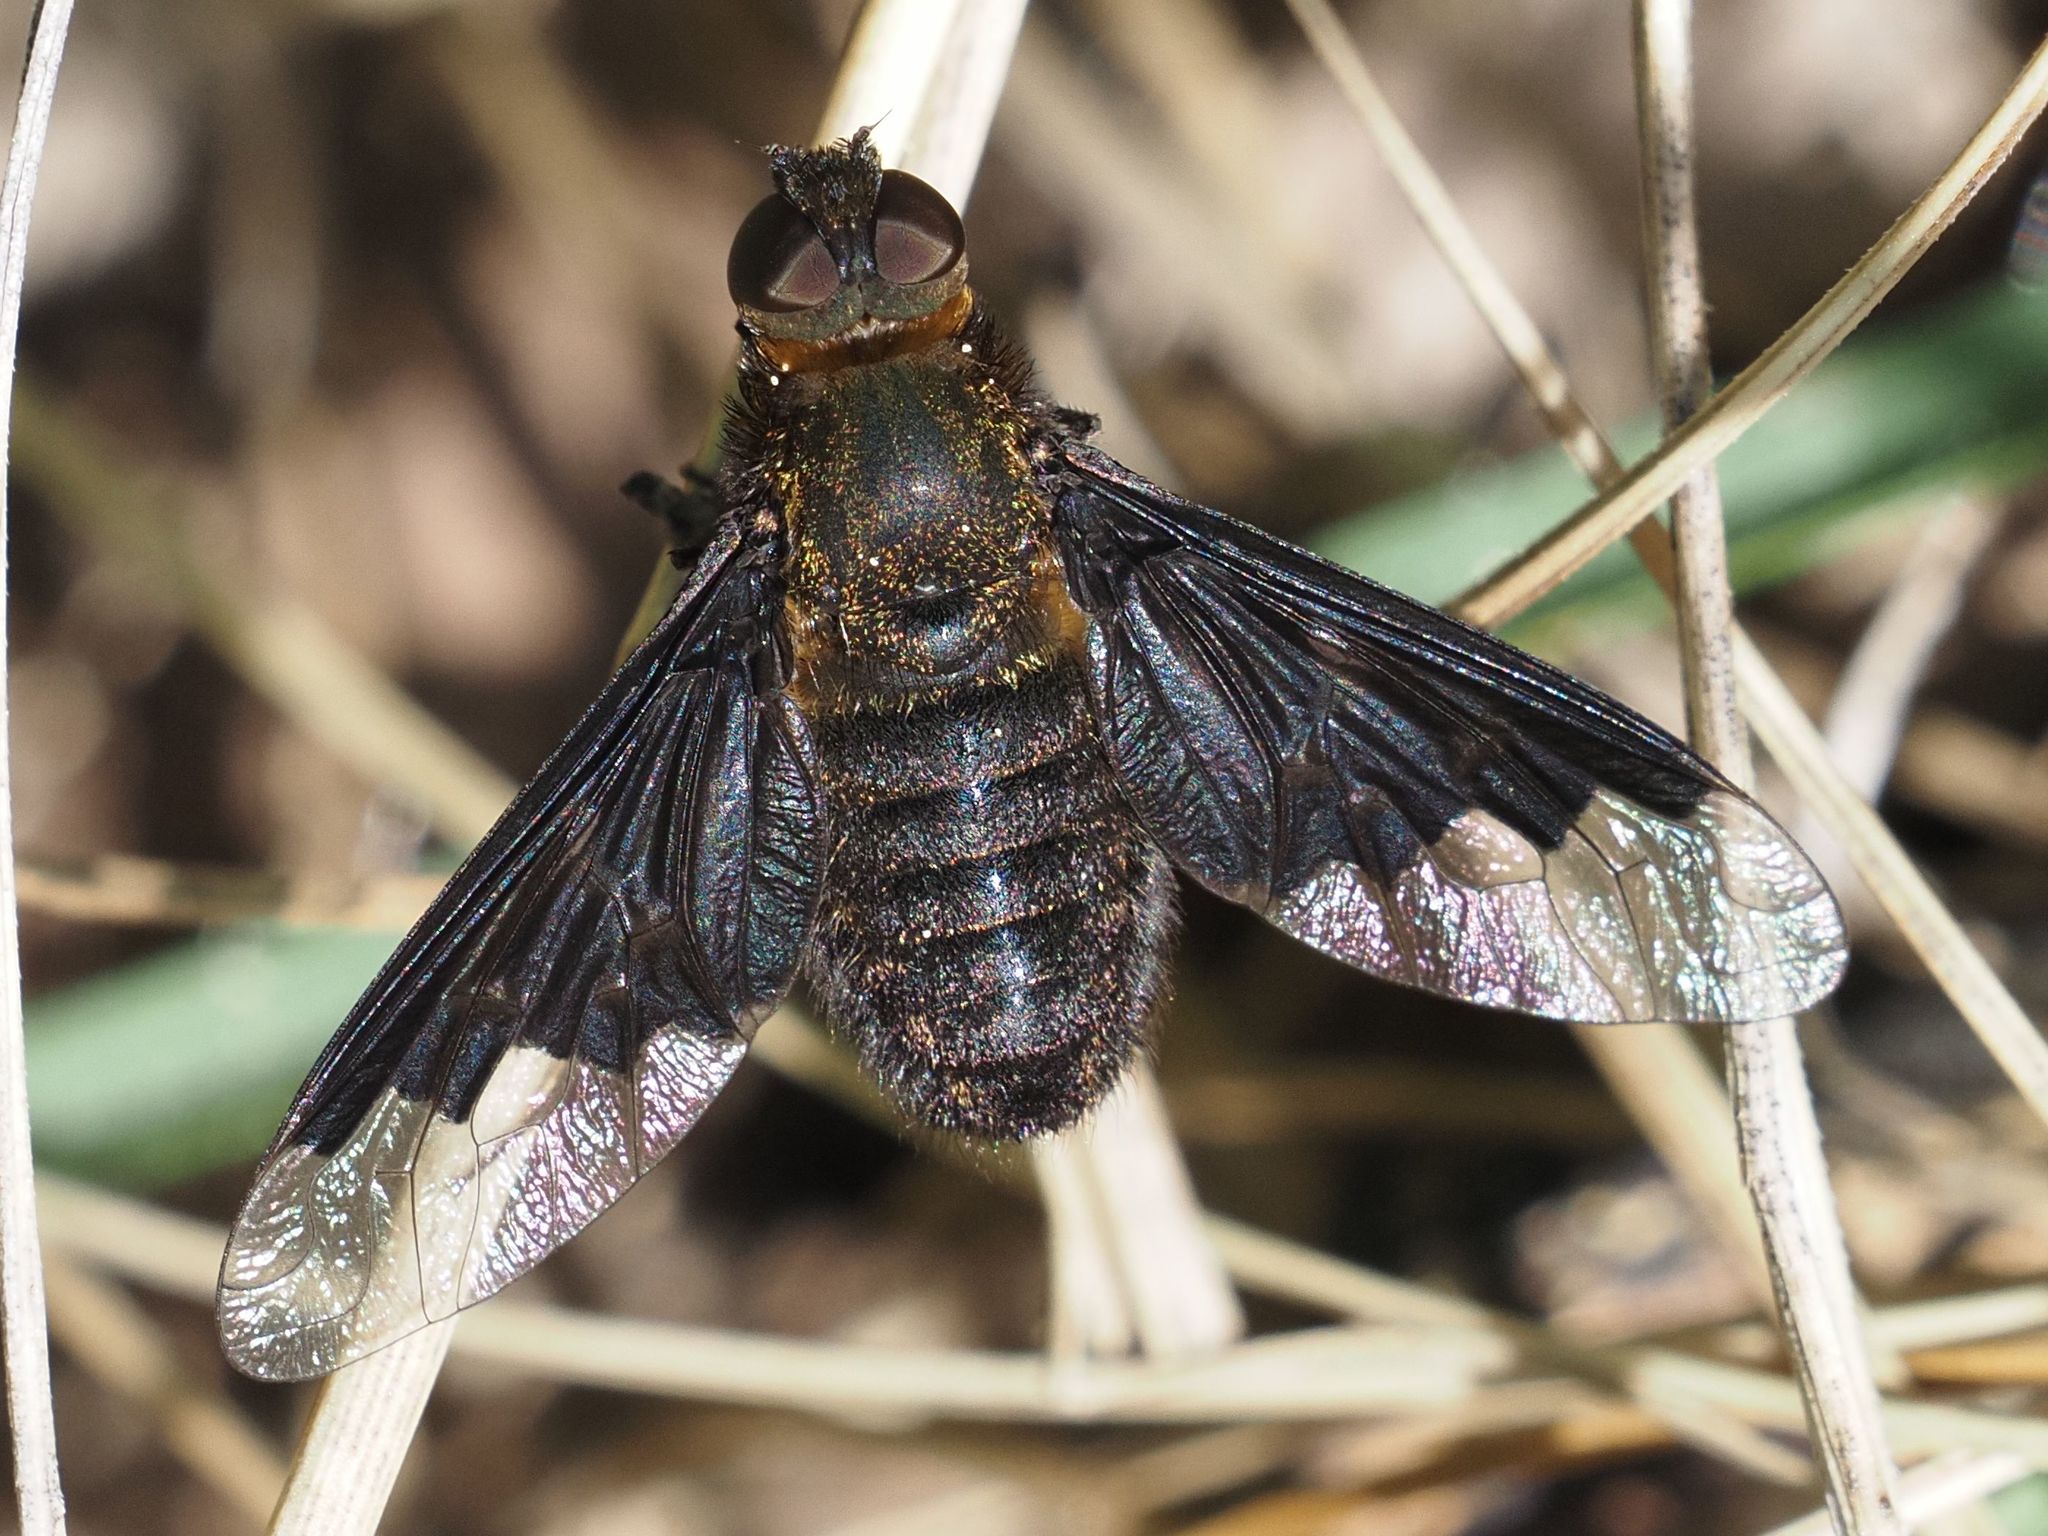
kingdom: Animalia
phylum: Arthropoda
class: Insecta
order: Diptera
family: Bombyliidae
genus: Hemipenthes
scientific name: Hemipenthes morio
